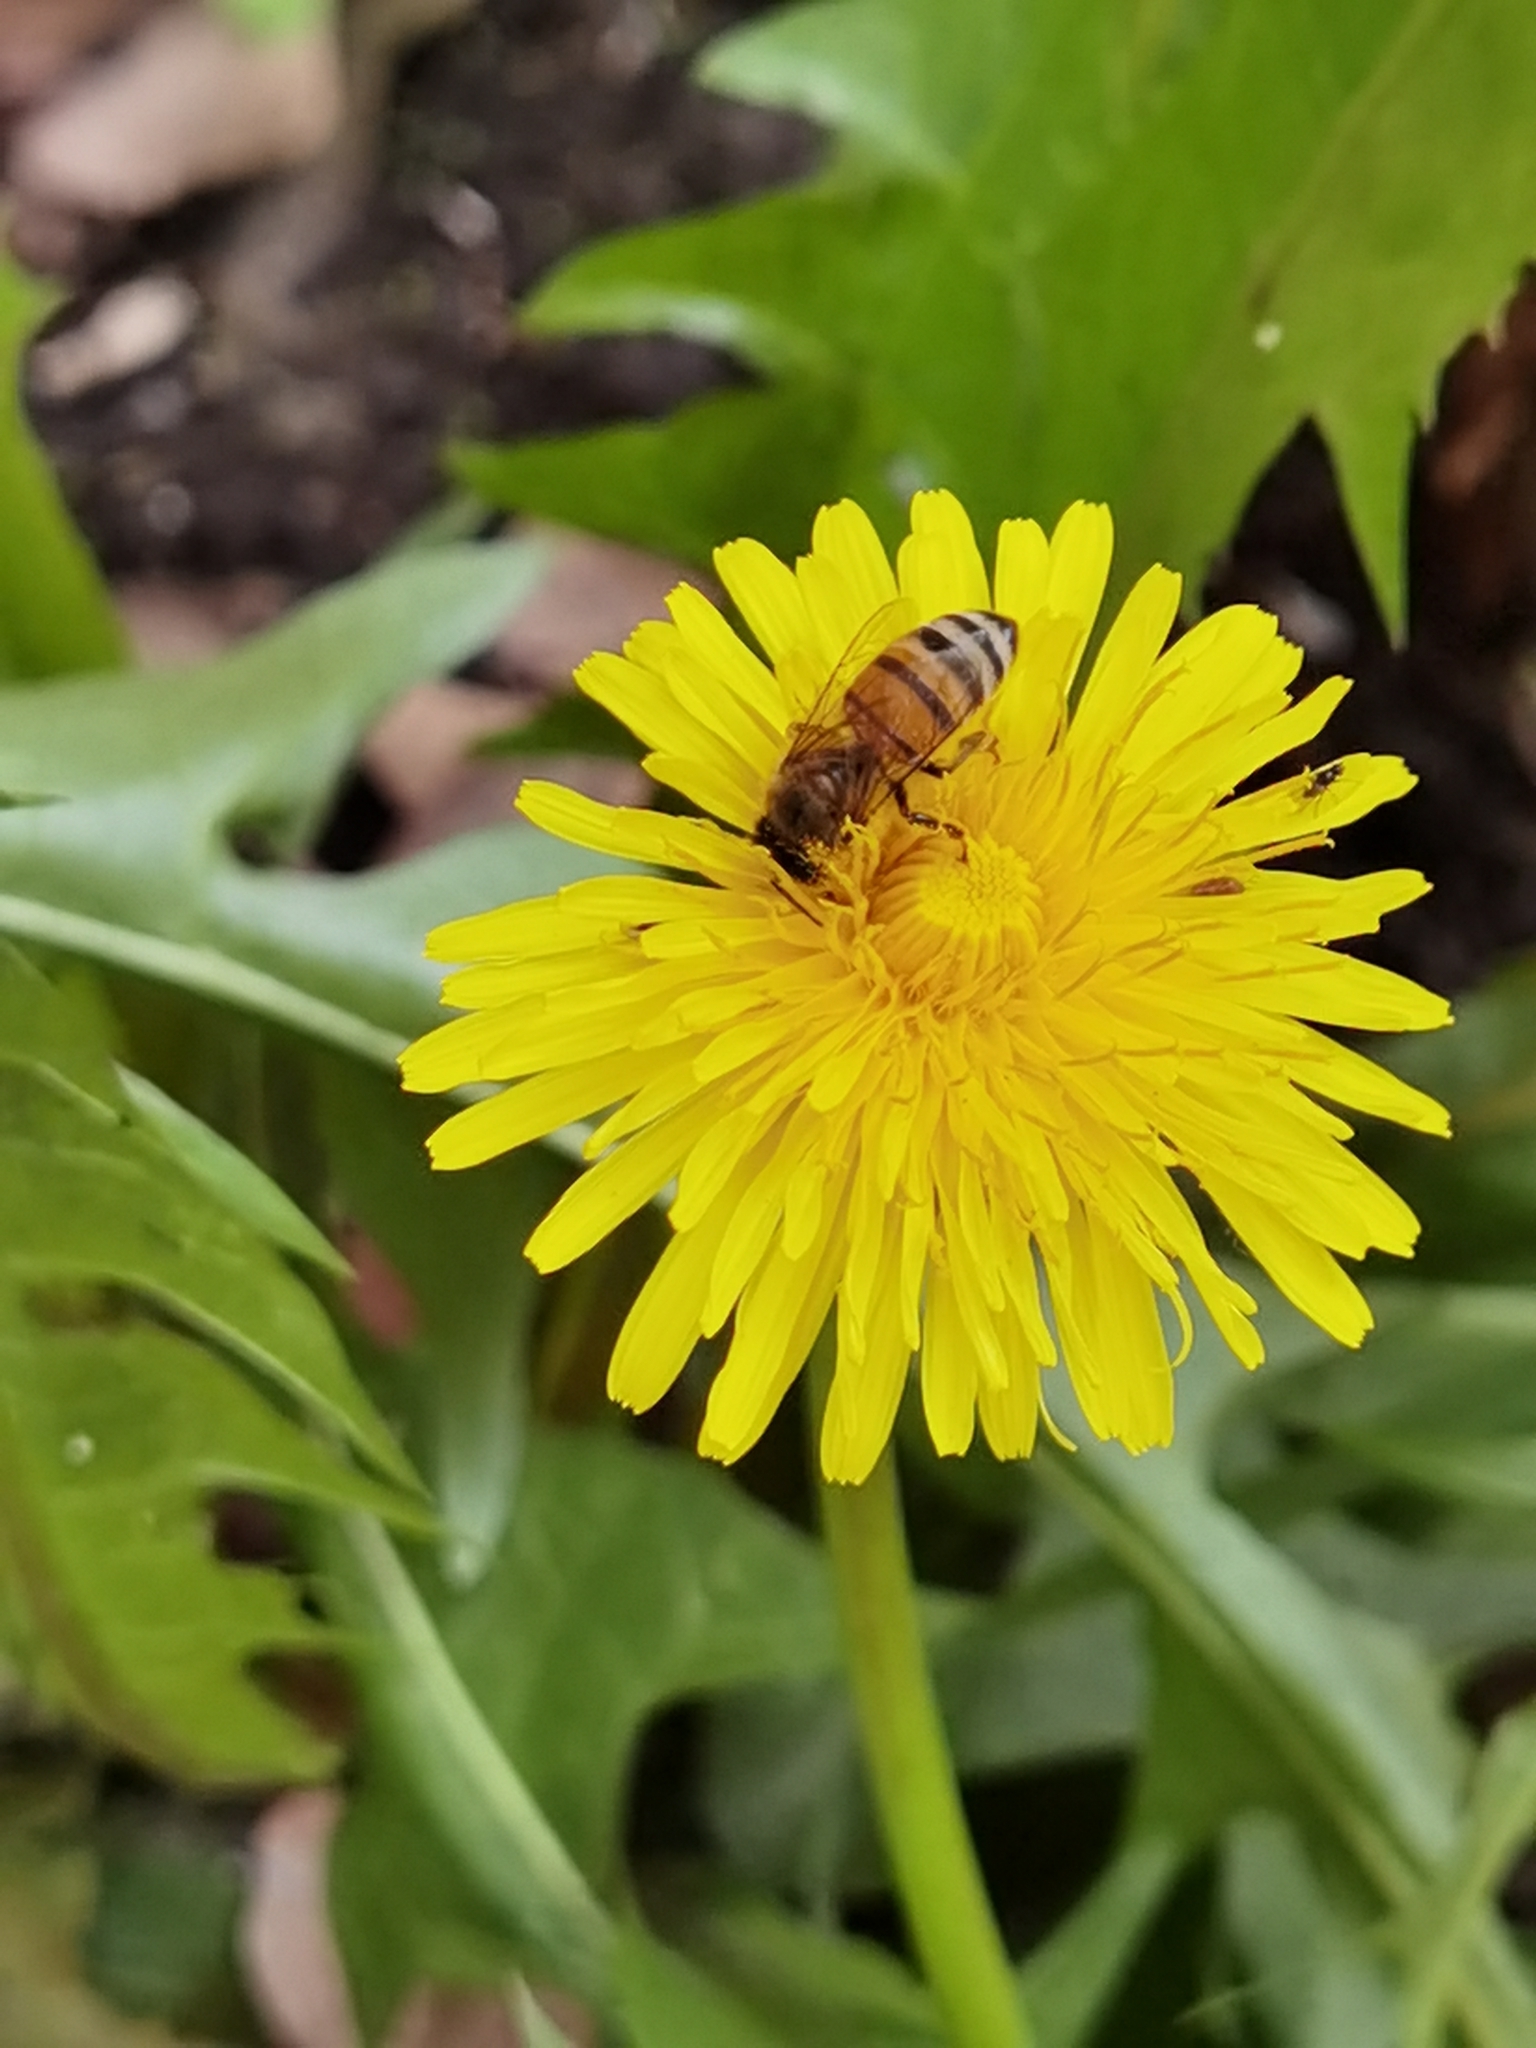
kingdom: Animalia
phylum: Arthropoda
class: Insecta
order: Hymenoptera
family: Apidae
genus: Apis
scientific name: Apis mellifera
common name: Honey bee
